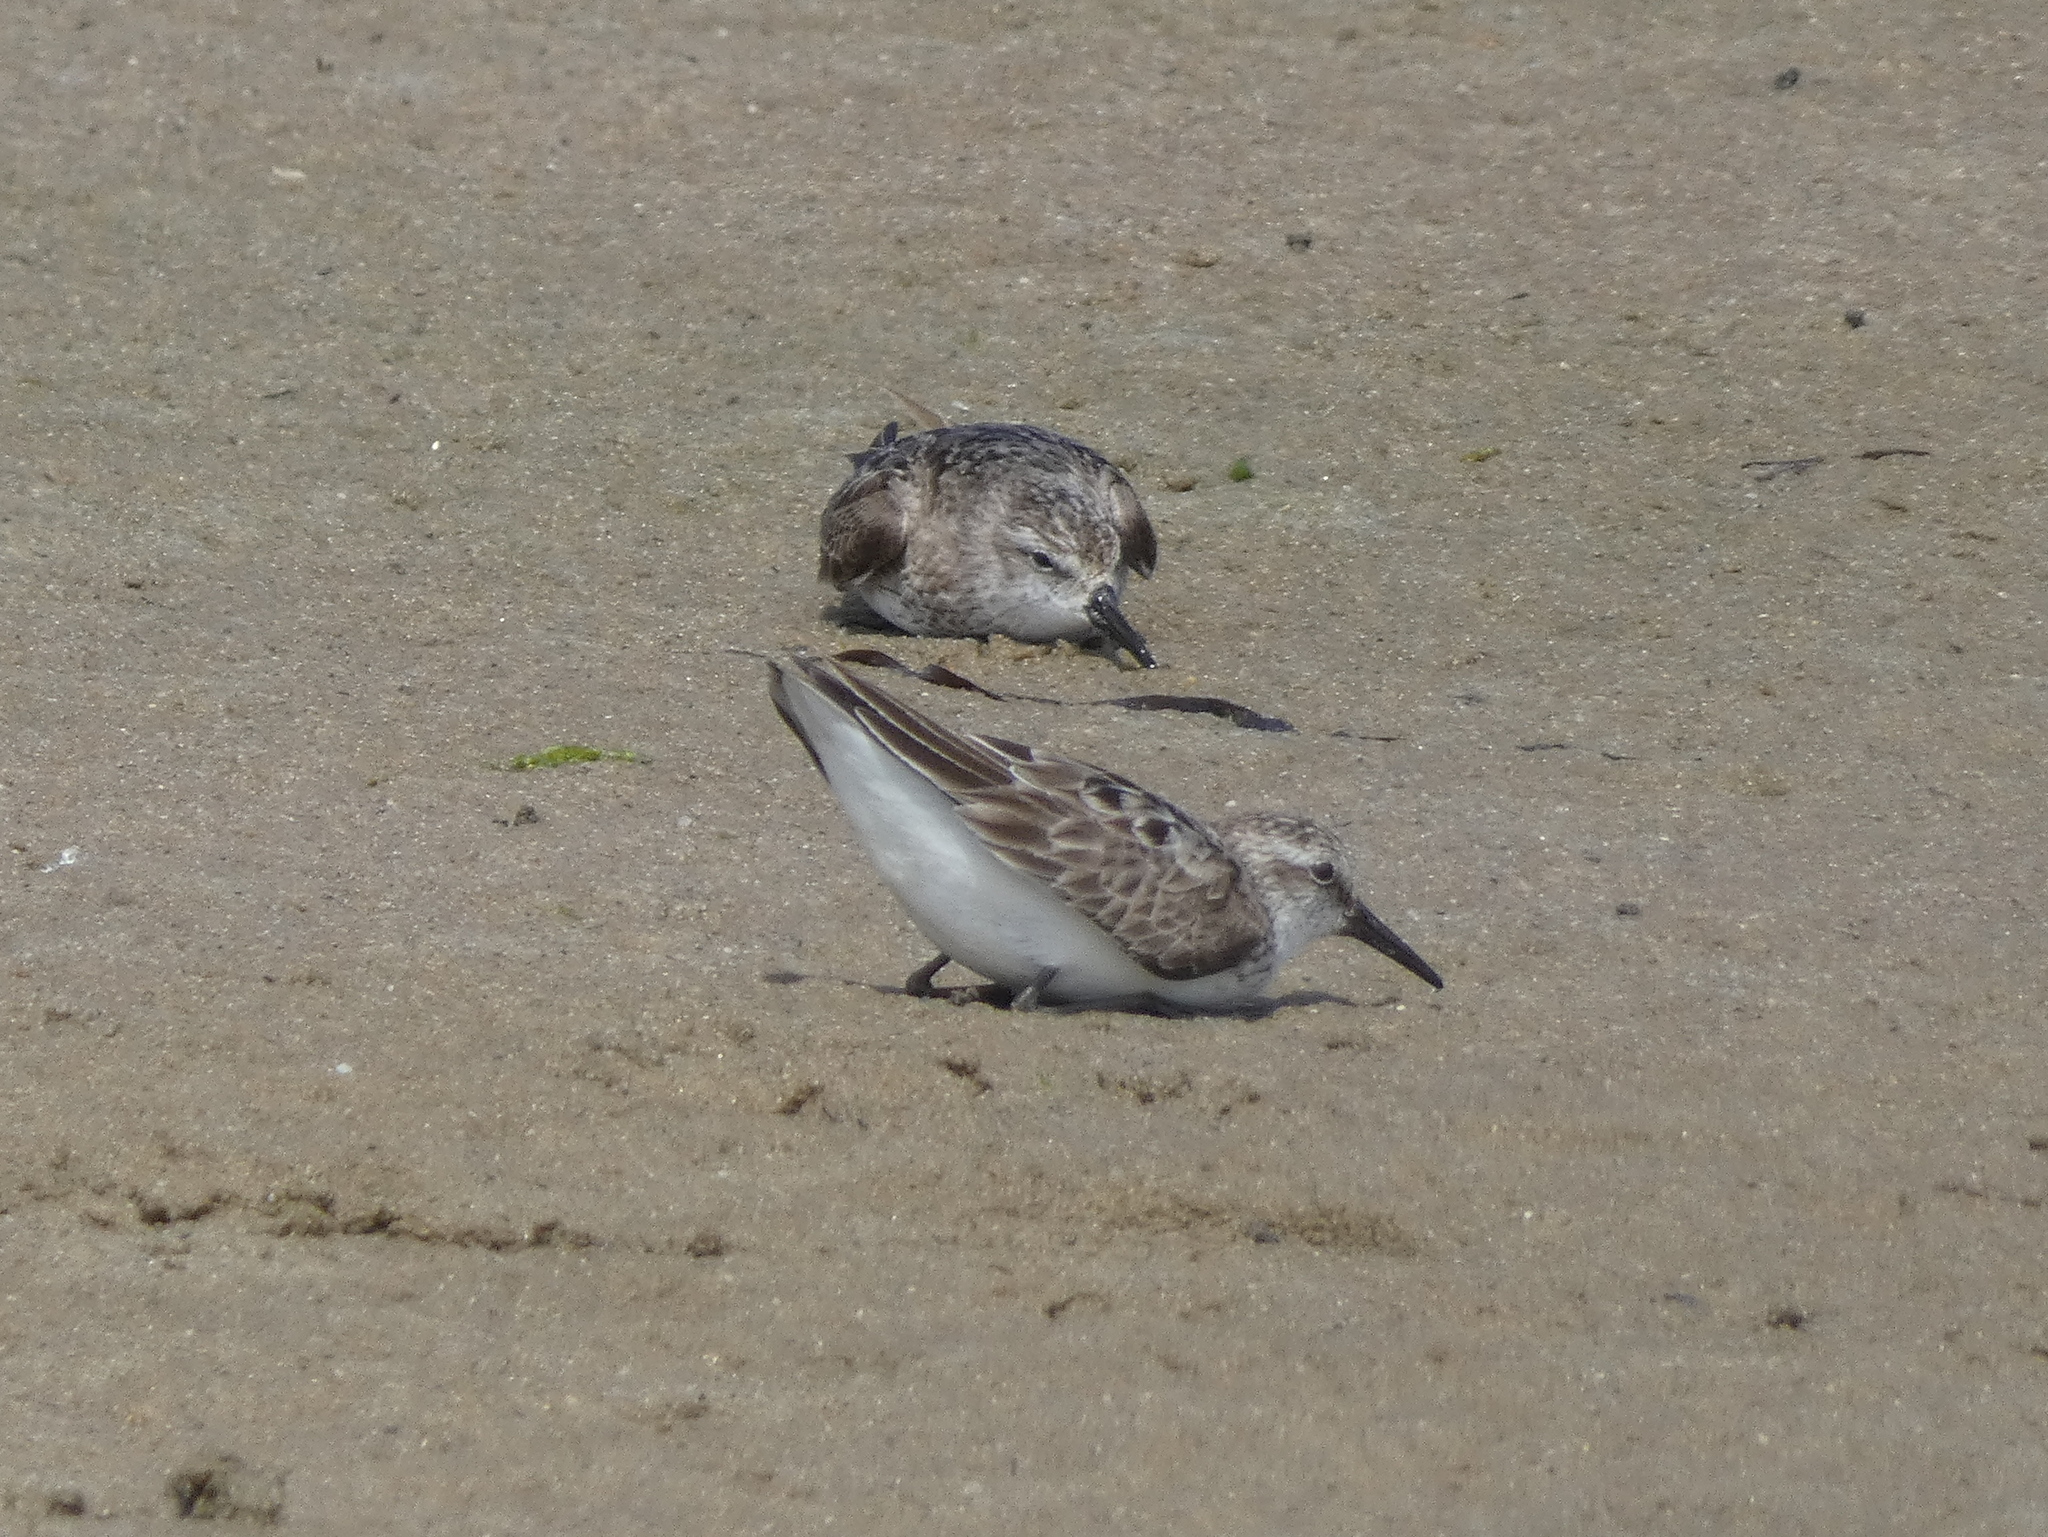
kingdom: Animalia
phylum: Chordata
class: Aves
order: Charadriiformes
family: Scolopacidae
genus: Calidris
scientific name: Calidris pusilla
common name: Semipalmated sandpiper
